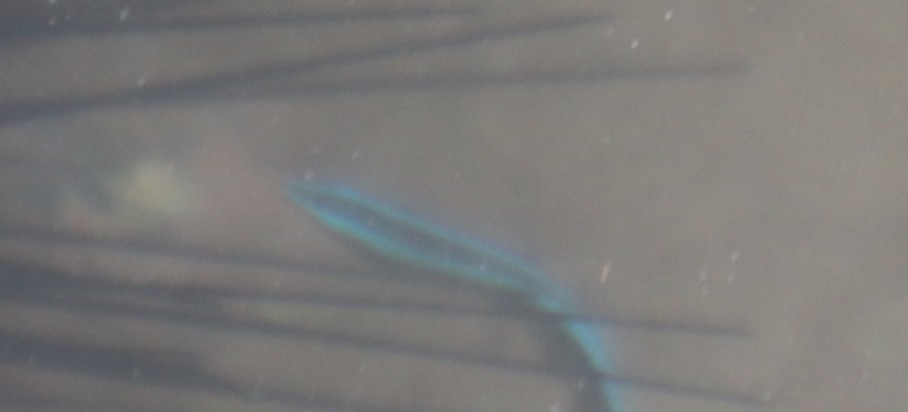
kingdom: Animalia
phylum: Chordata
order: Perciformes
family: Labridae
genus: Labroides
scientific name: Labroides dimidiatus
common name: Blue diesel wrasse
